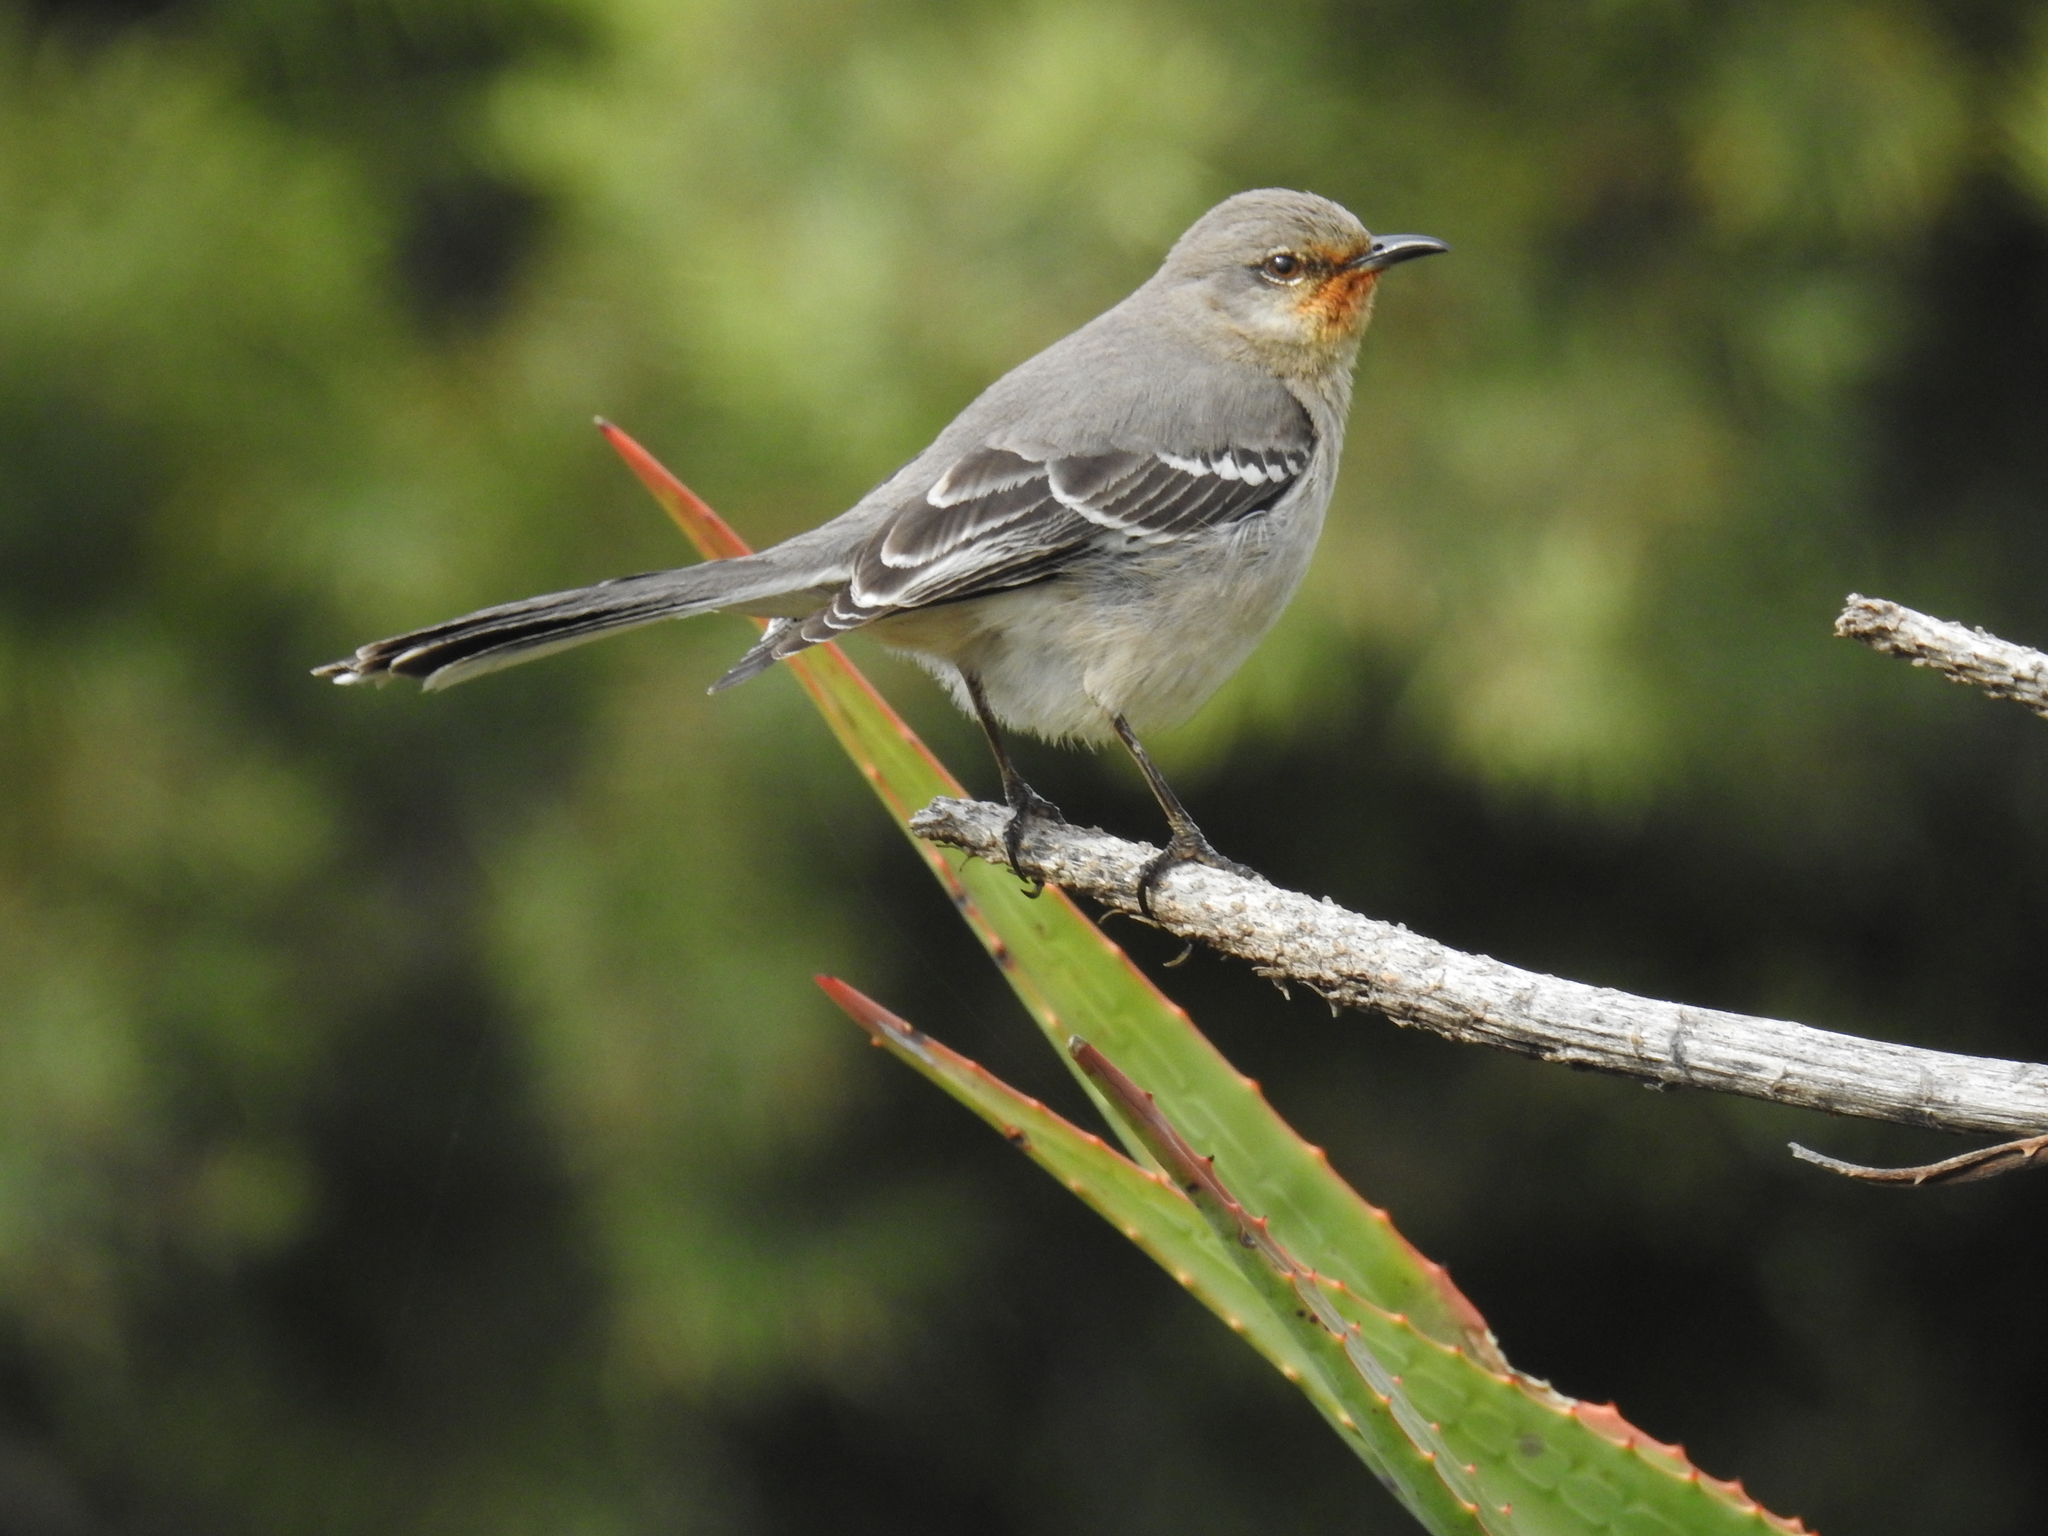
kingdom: Animalia
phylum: Chordata
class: Aves
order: Passeriformes
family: Mimidae
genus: Mimus
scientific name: Mimus polyglottos
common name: Northern mockingbird
